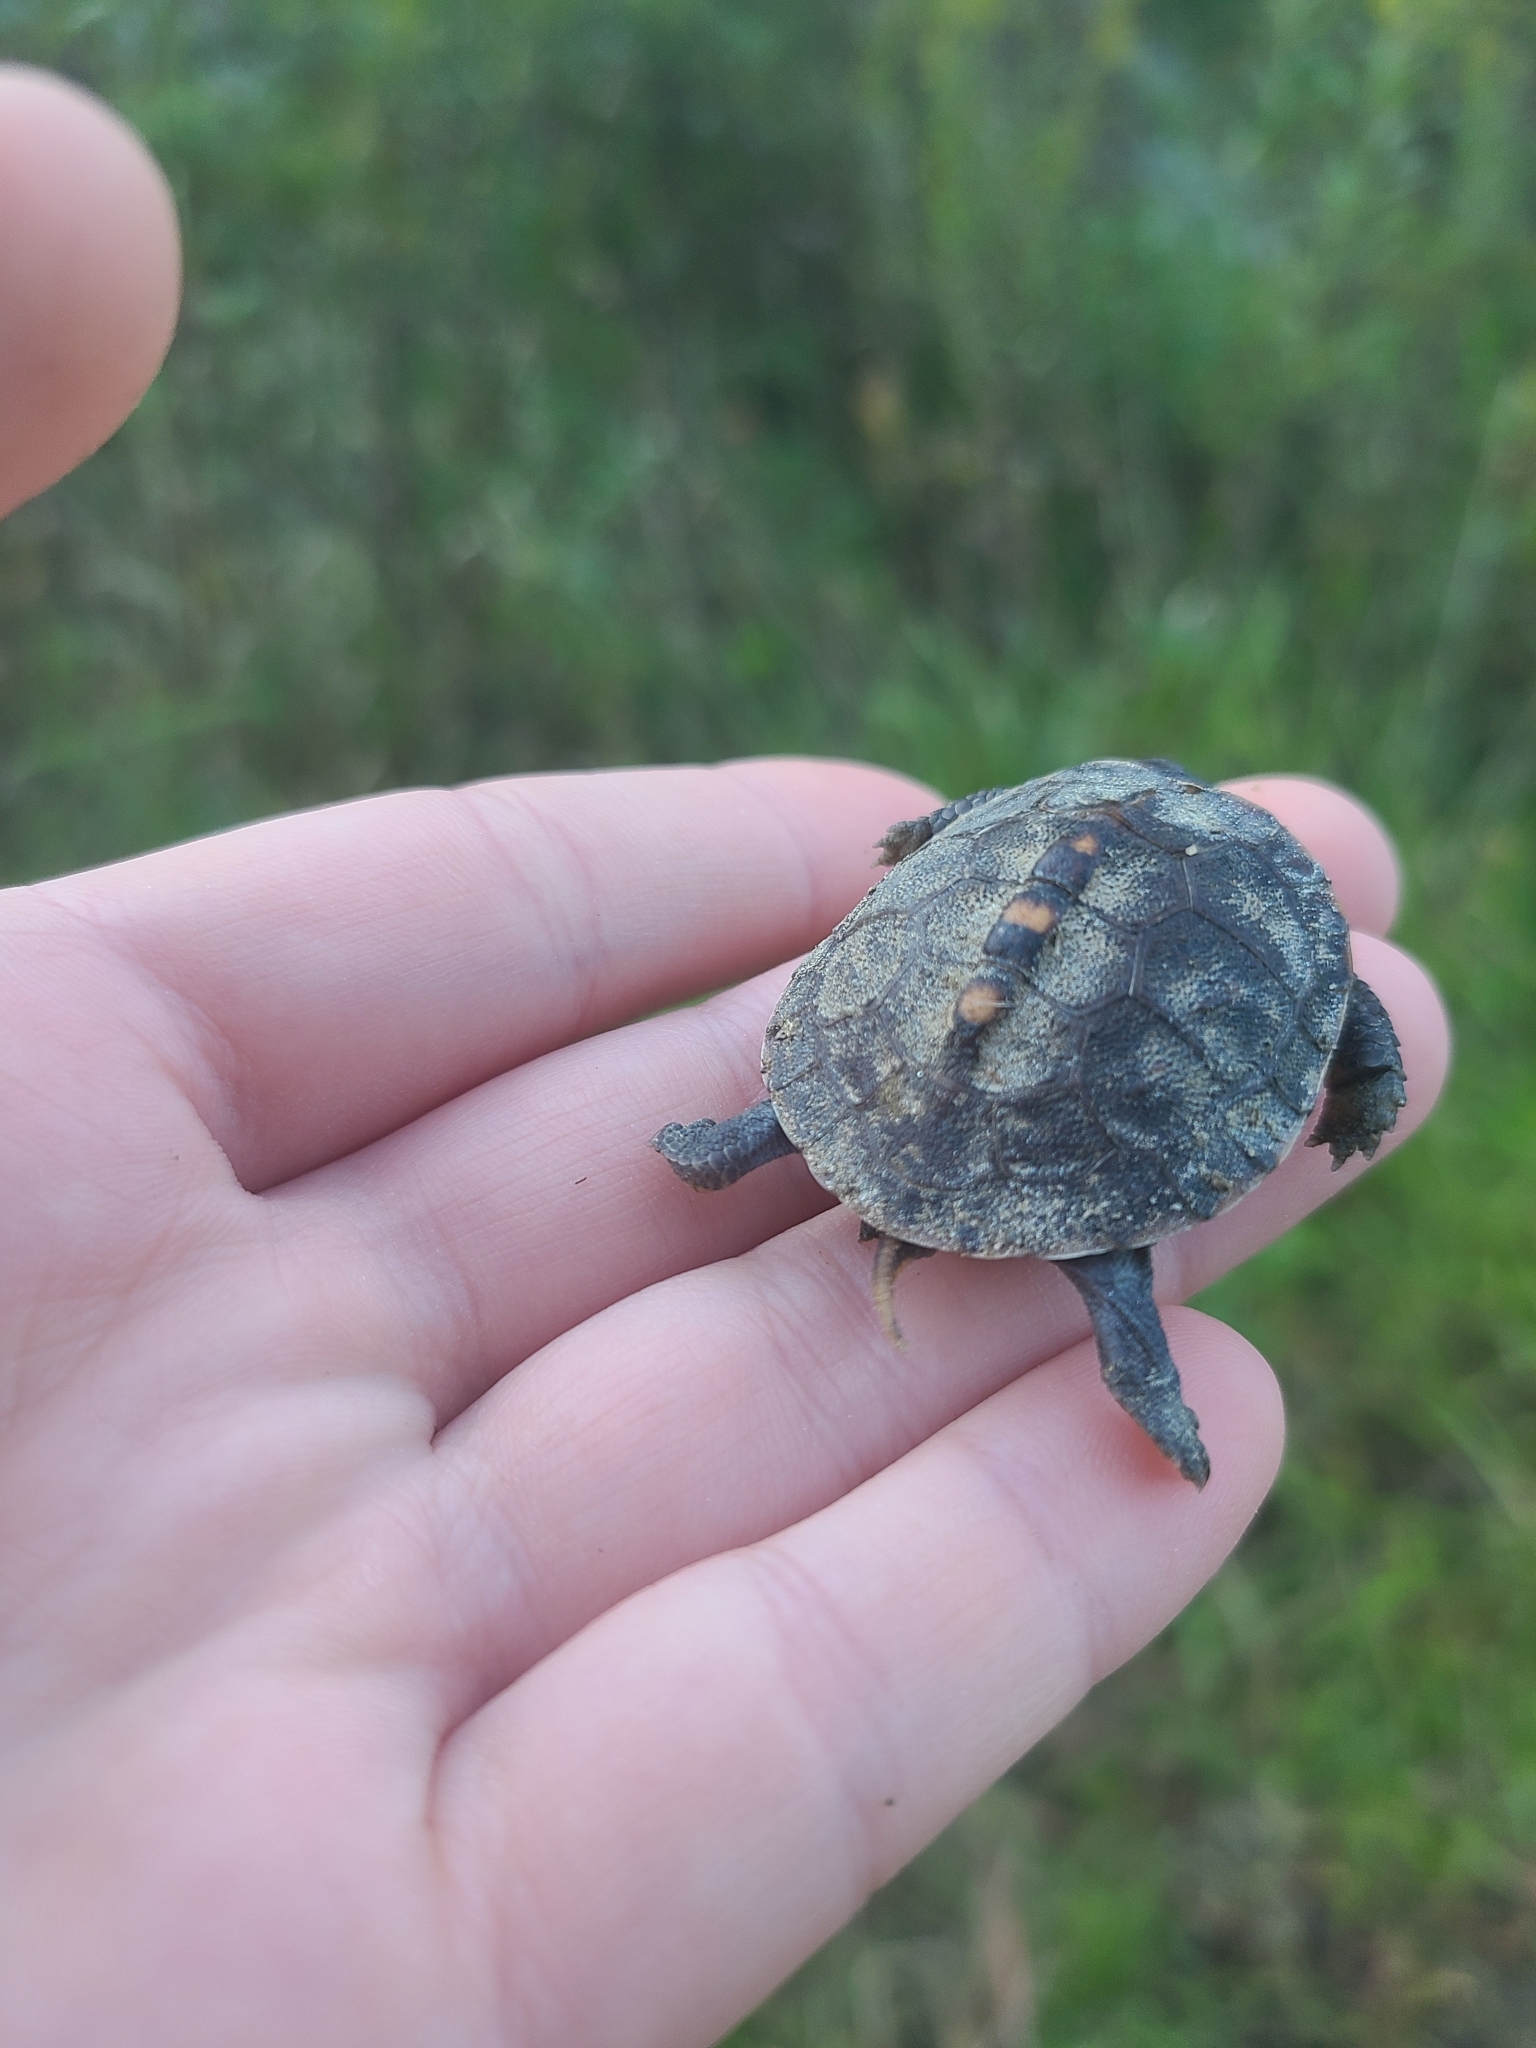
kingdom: Animalia
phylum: Chordata
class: Testudines
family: Emydidae
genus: Terrapene
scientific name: Terrapene carolina
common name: Common box turtle
